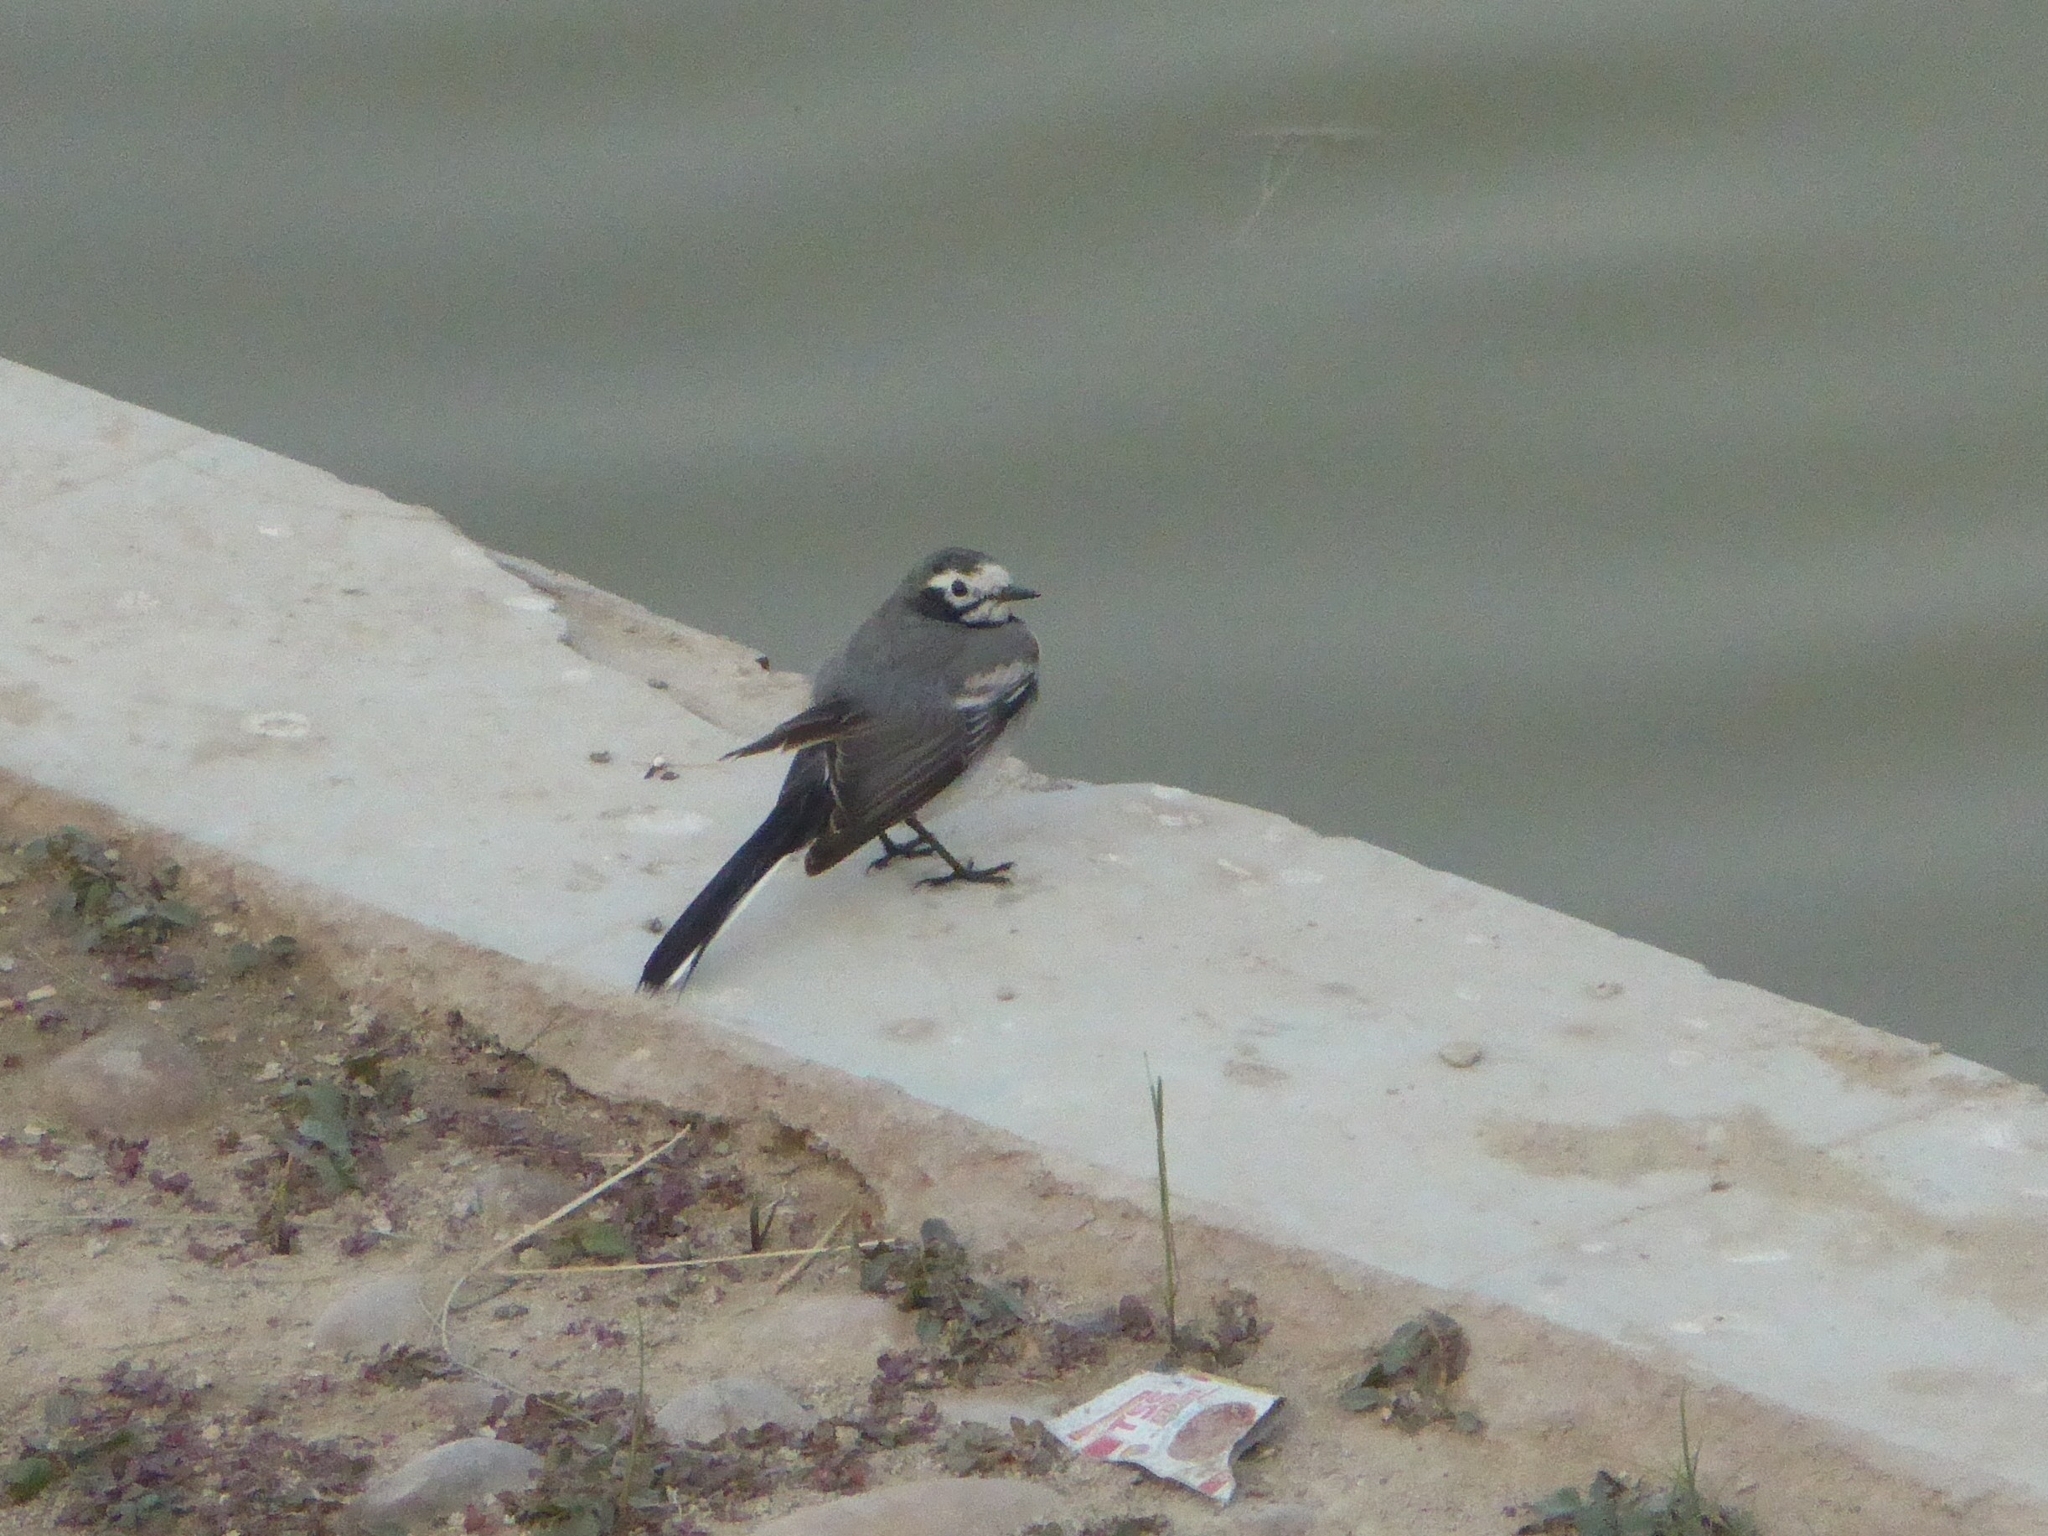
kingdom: Animalia
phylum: Chordata
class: Aves
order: Passeriformes
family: Motacillidae
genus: Motacilla
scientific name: Motacilla alba
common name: White wagtail
